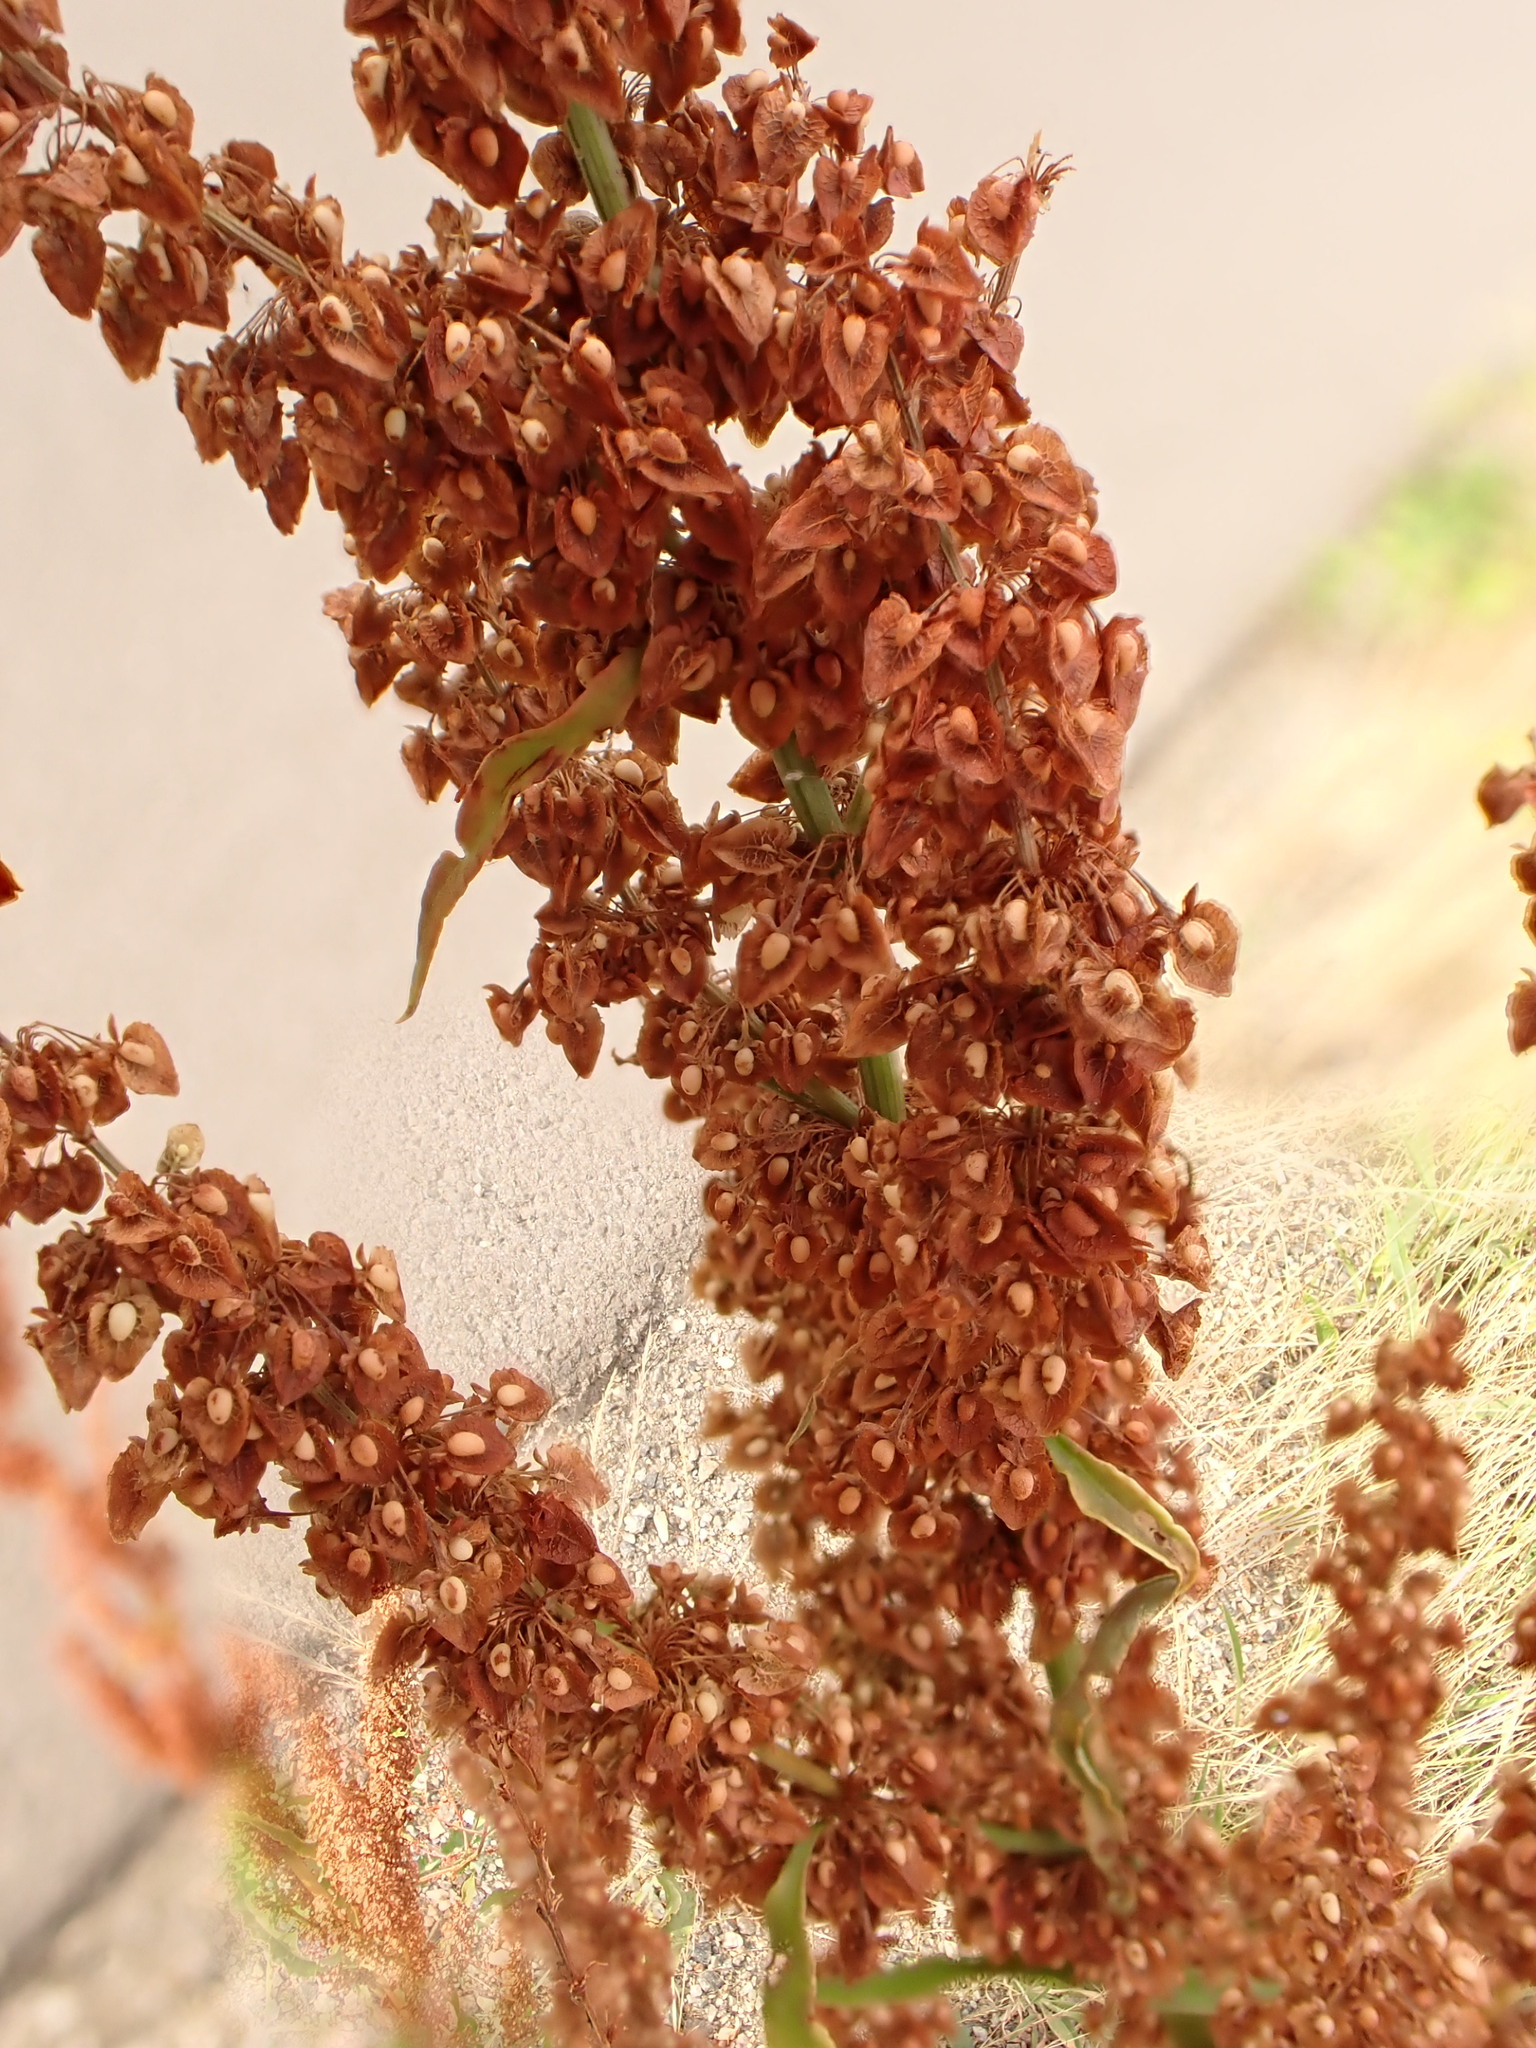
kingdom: Plantae
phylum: Tracheophyta
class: Magnoliopsida
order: Caryophyllales
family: Polygonaceae
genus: Rumex
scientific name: Rumex crispus
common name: Curled dock
